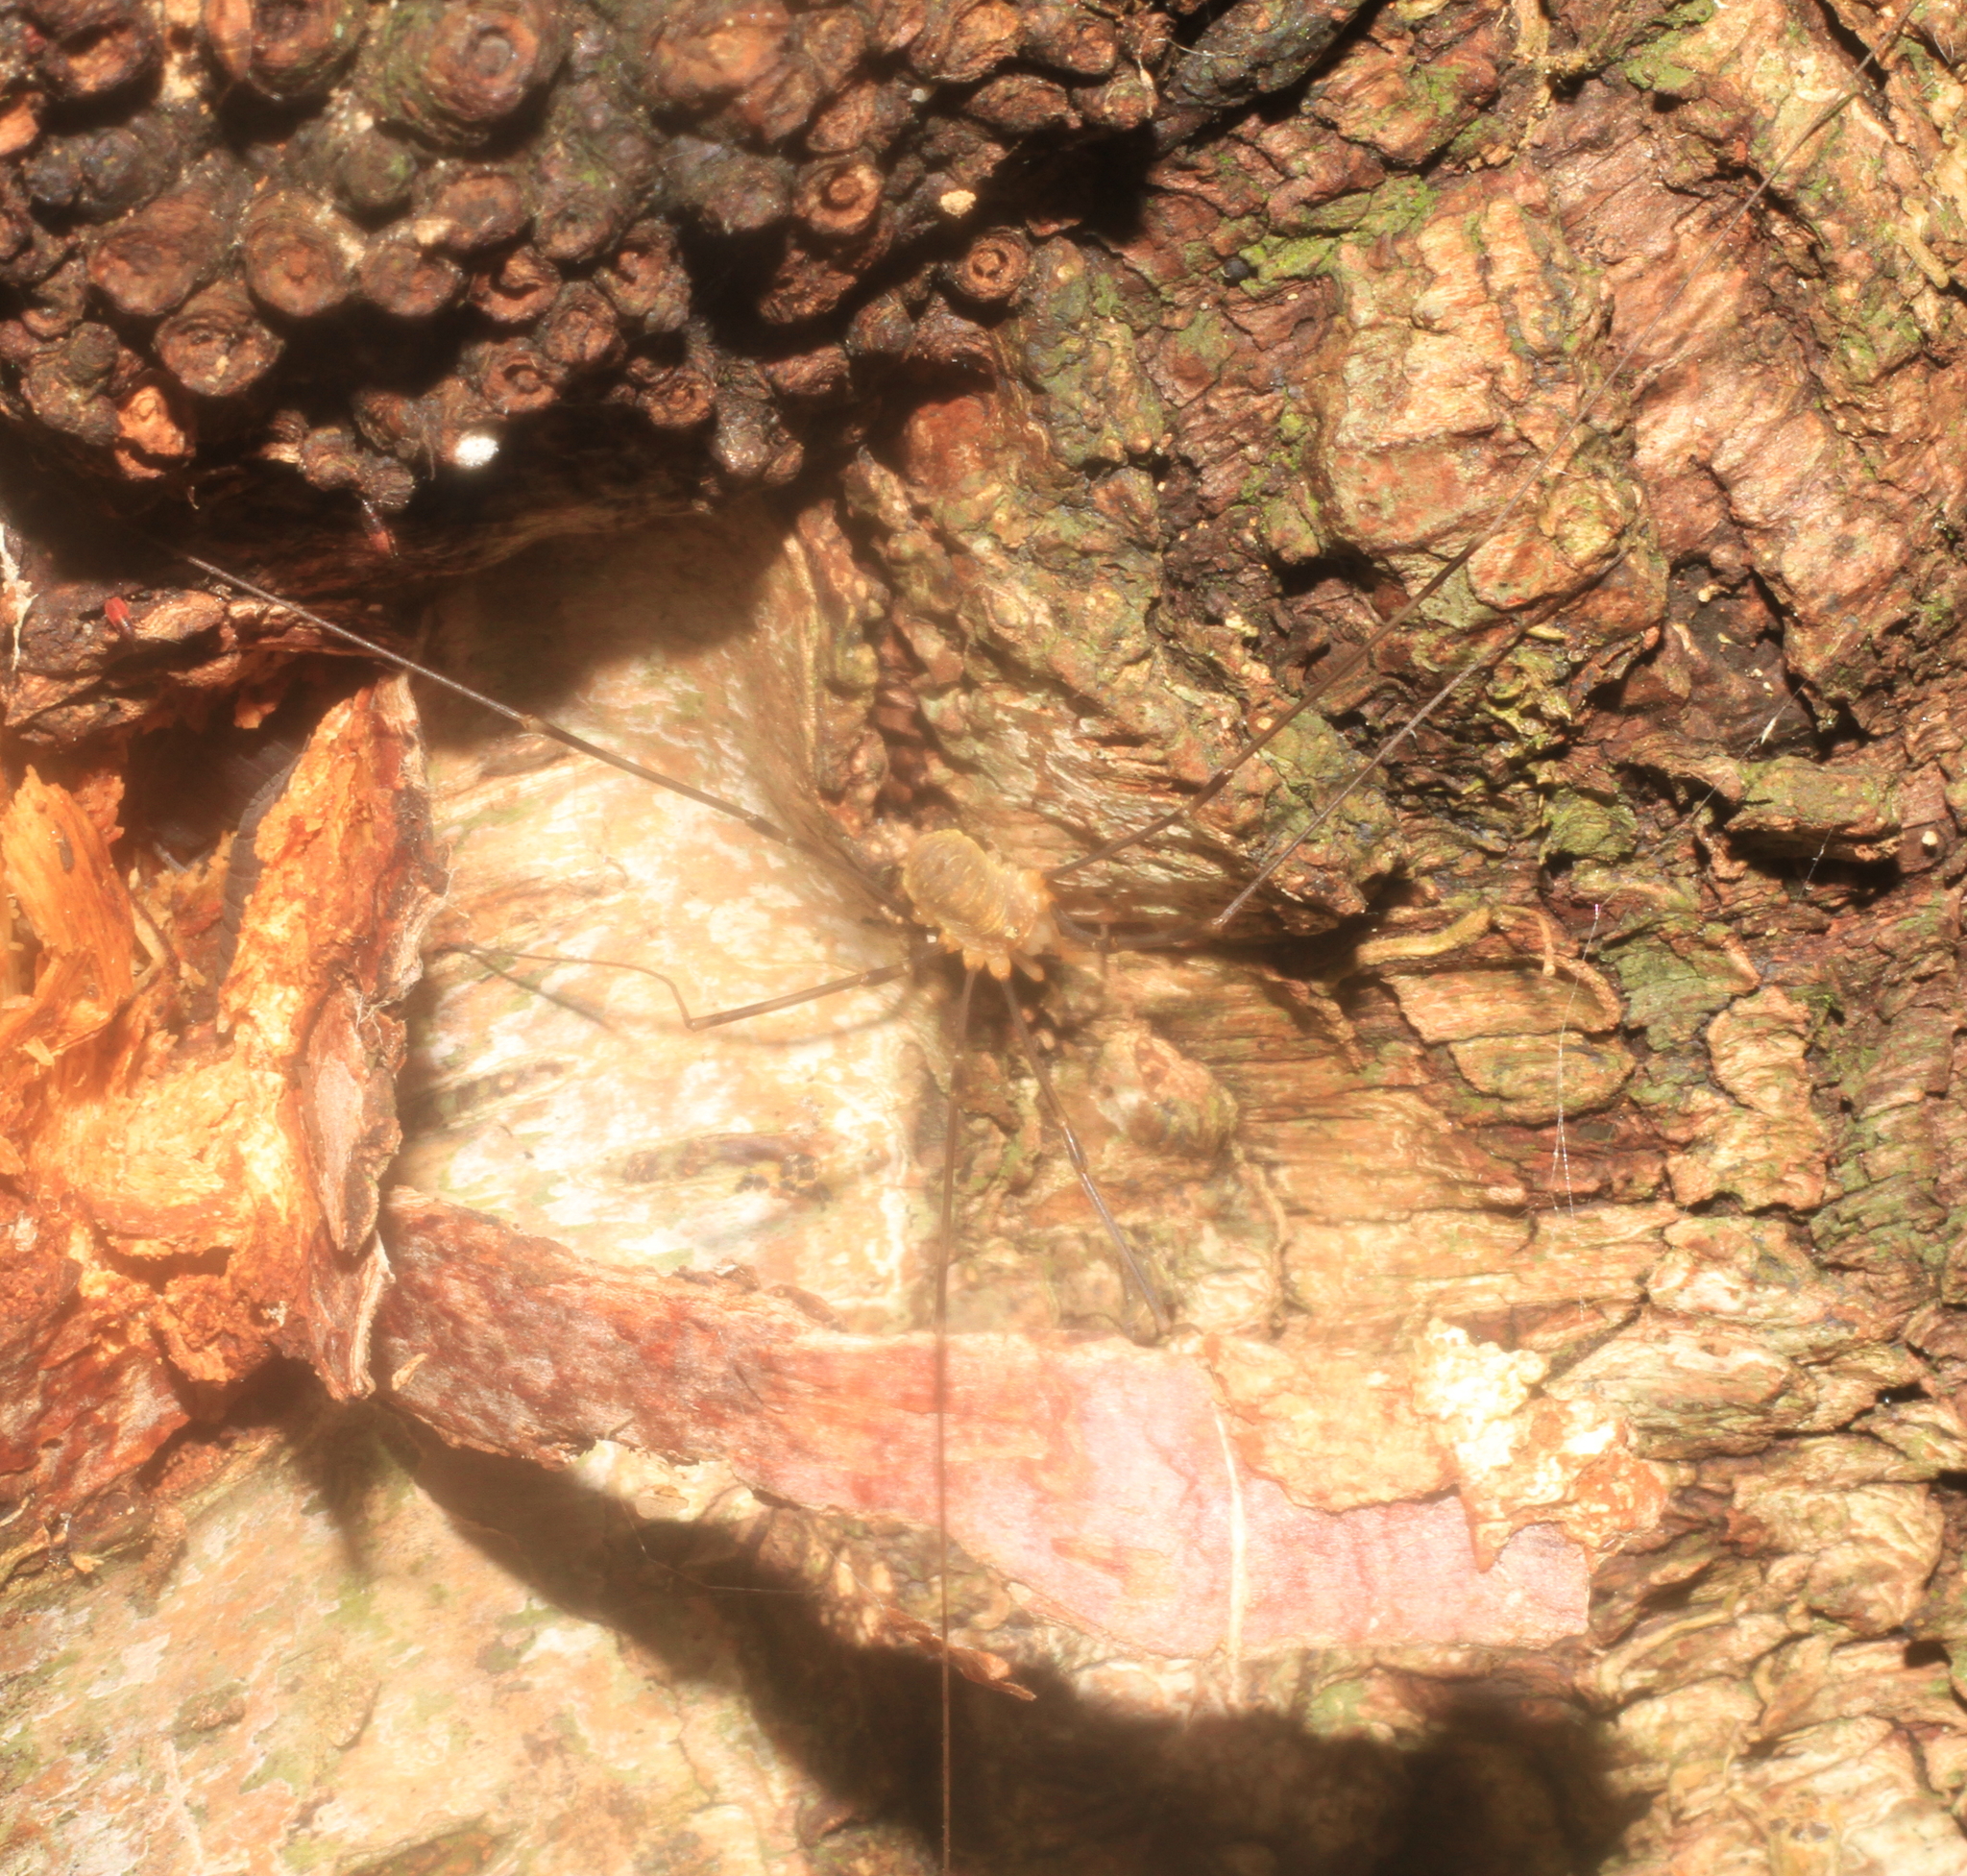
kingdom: Animalia
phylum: Arthropoda
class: Arachnida
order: Opiliones
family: Phalangiidae
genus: Opilio
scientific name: Opilio canestrinii
